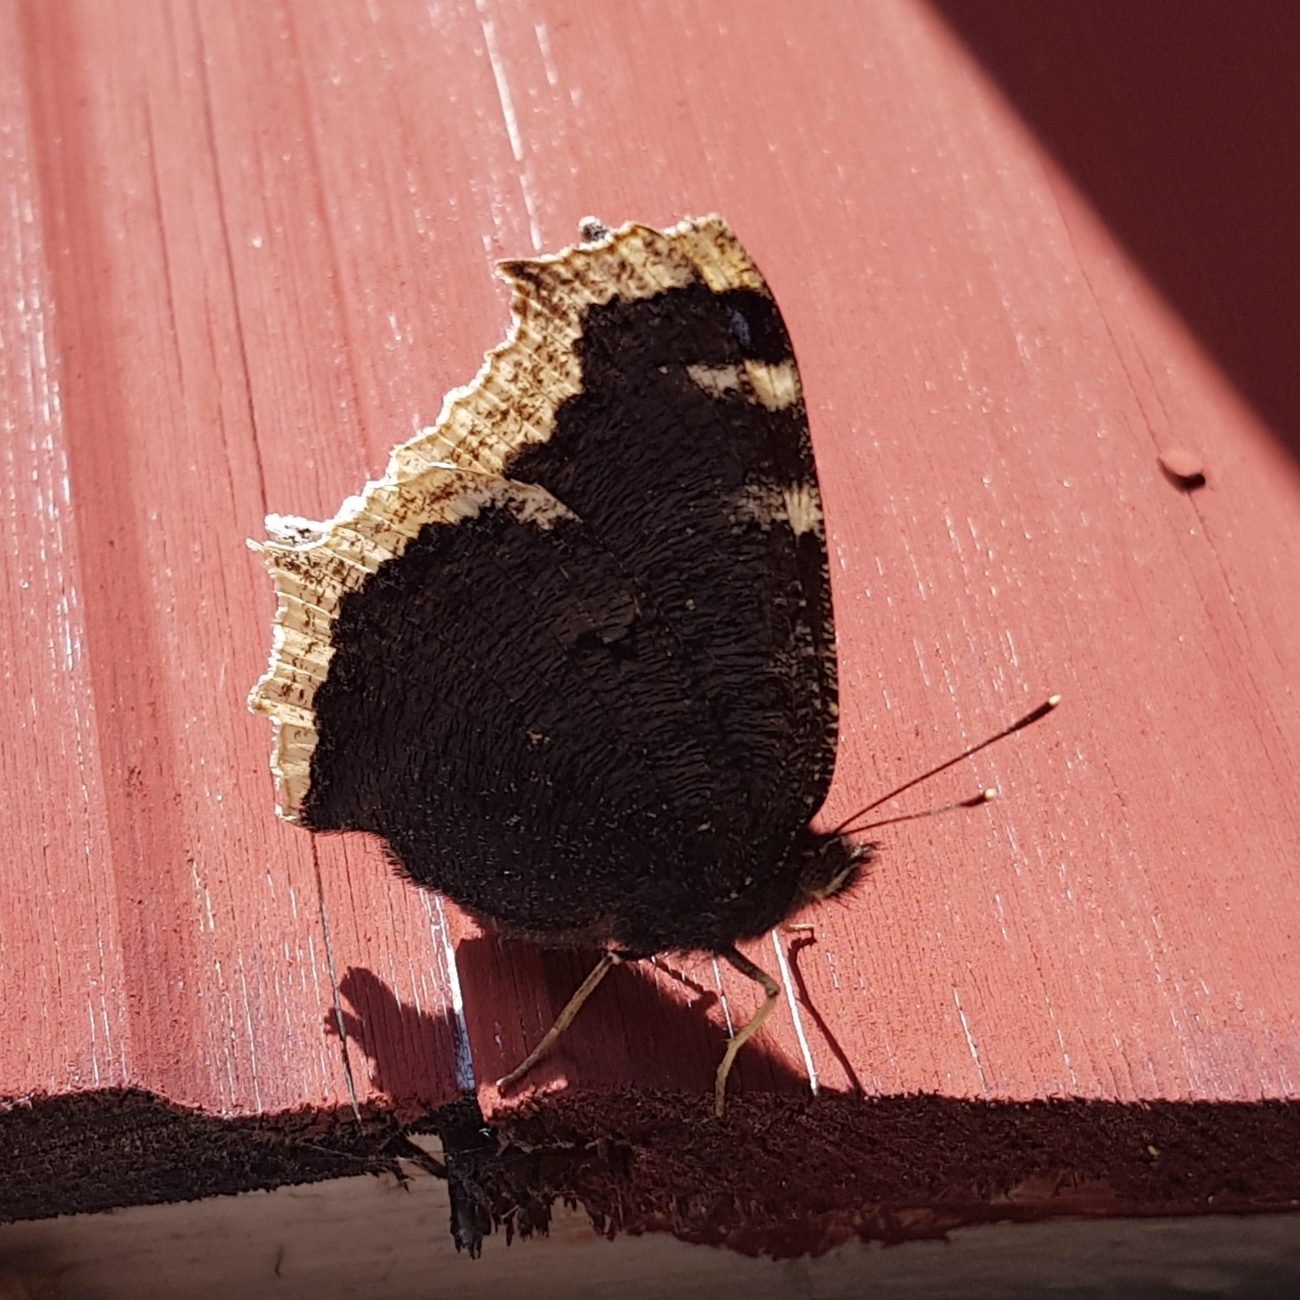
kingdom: Animalia
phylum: Arthropoda
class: Insecta
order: Lepidoptera
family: Nymphalidae
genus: Nymphalis
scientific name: Nymphalis antiopa
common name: Camberwell beauty
